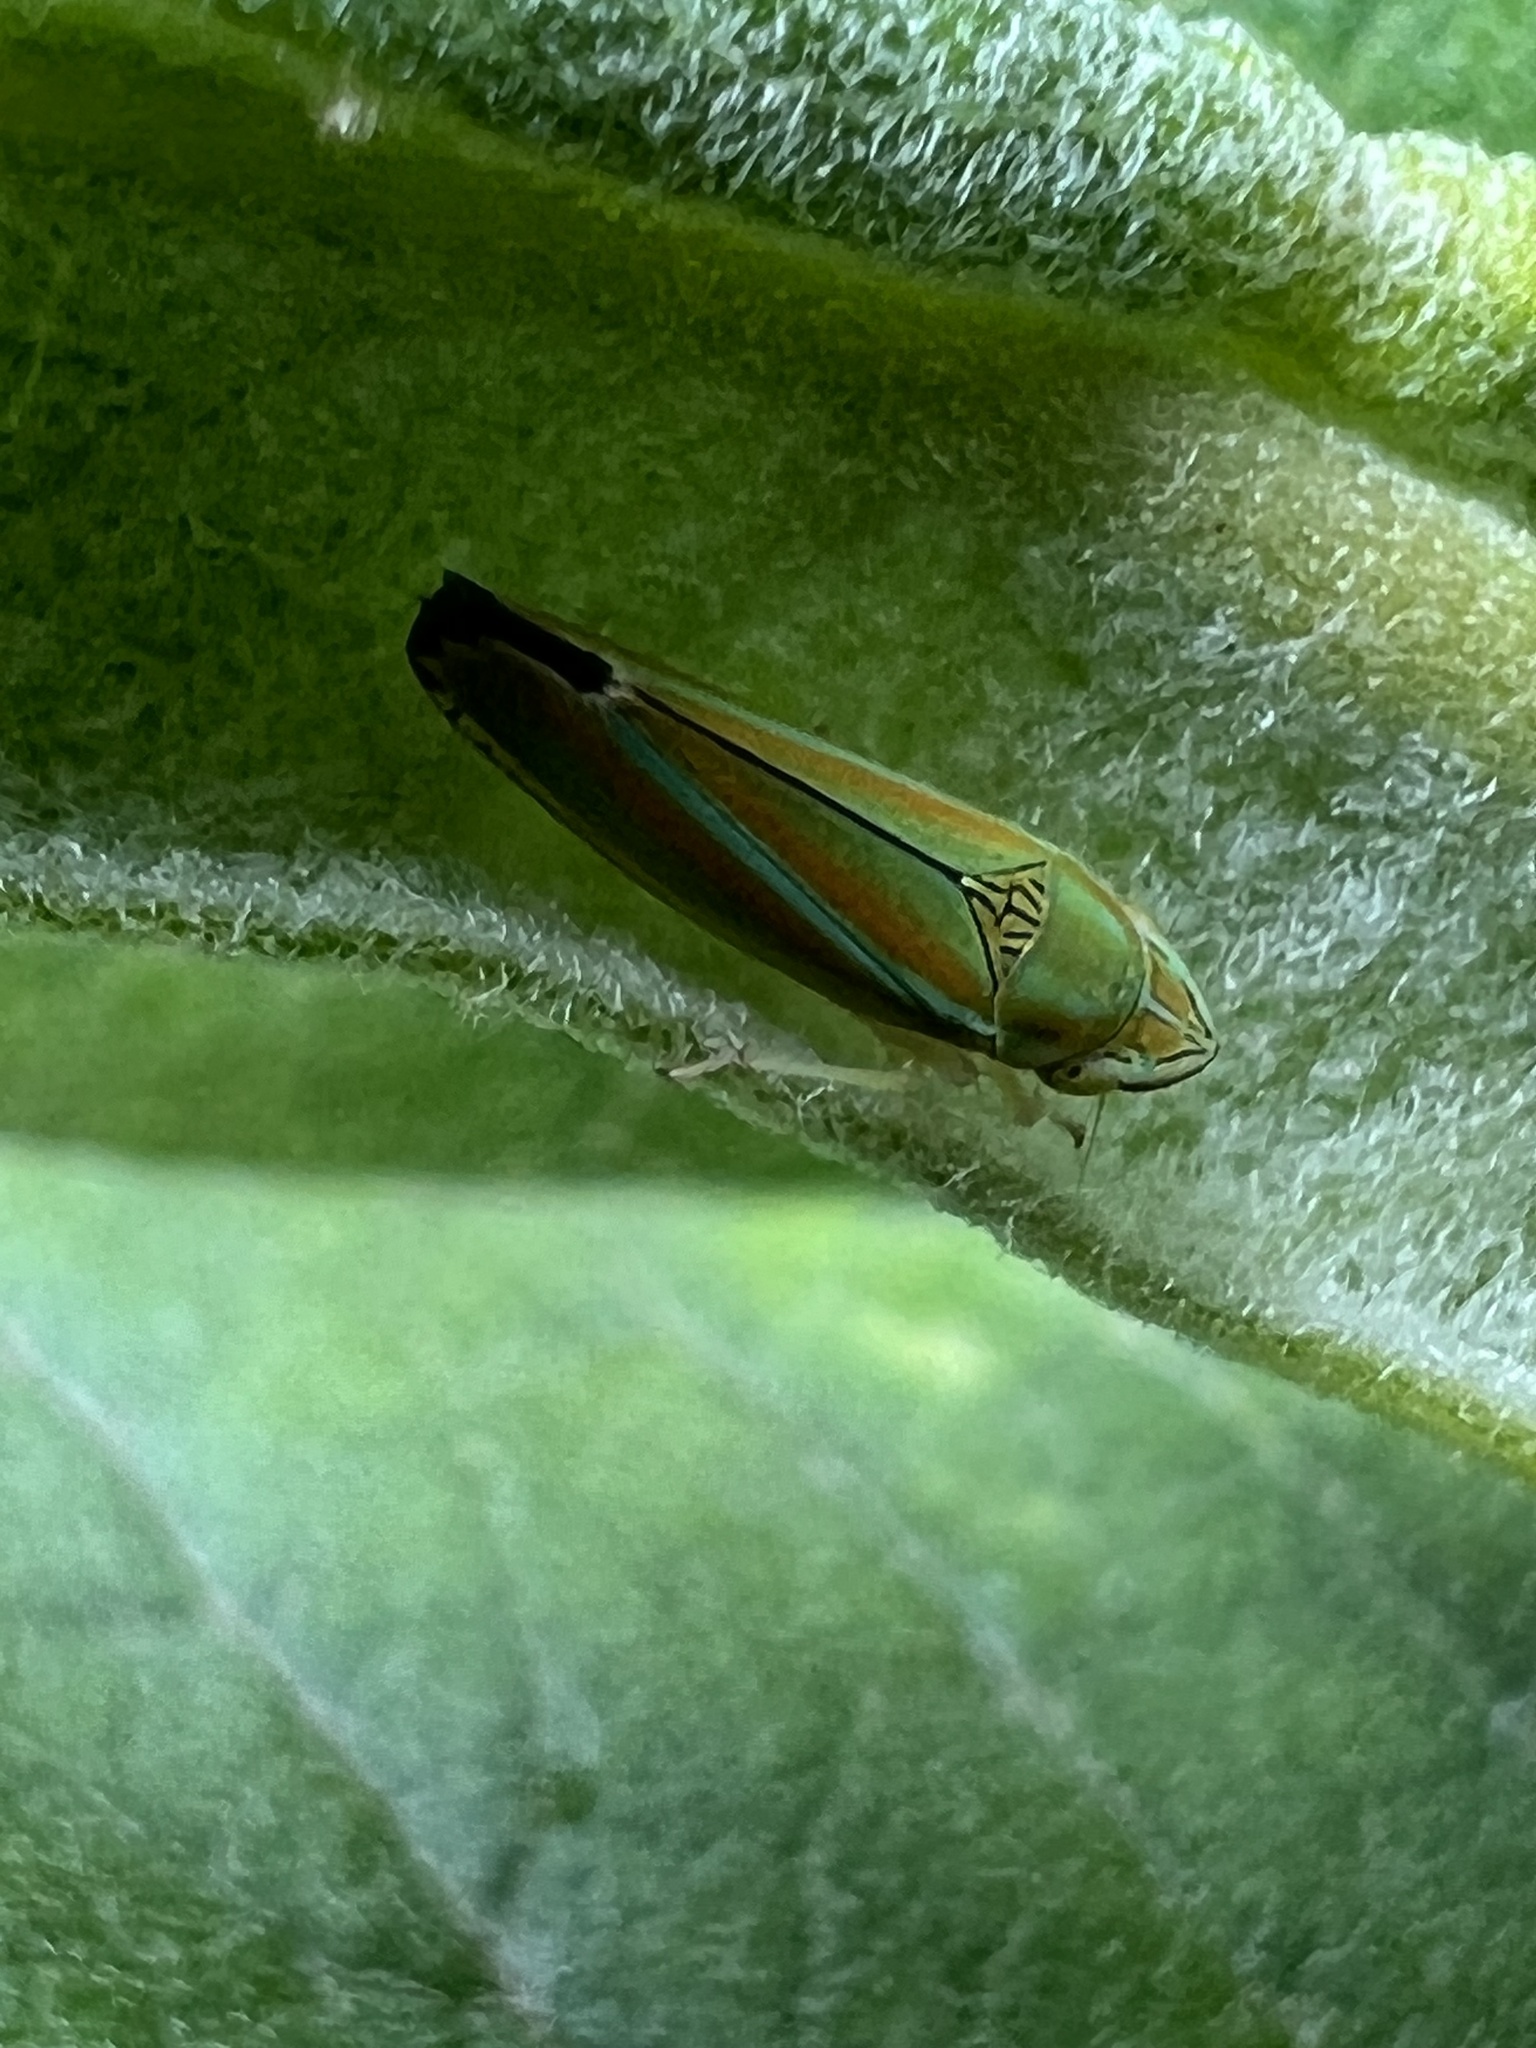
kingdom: Animalia
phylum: Arthropoda
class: Insecta
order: Hemiptera
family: Cicadellidae
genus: Graphocephala
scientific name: Graphocephala versuta
